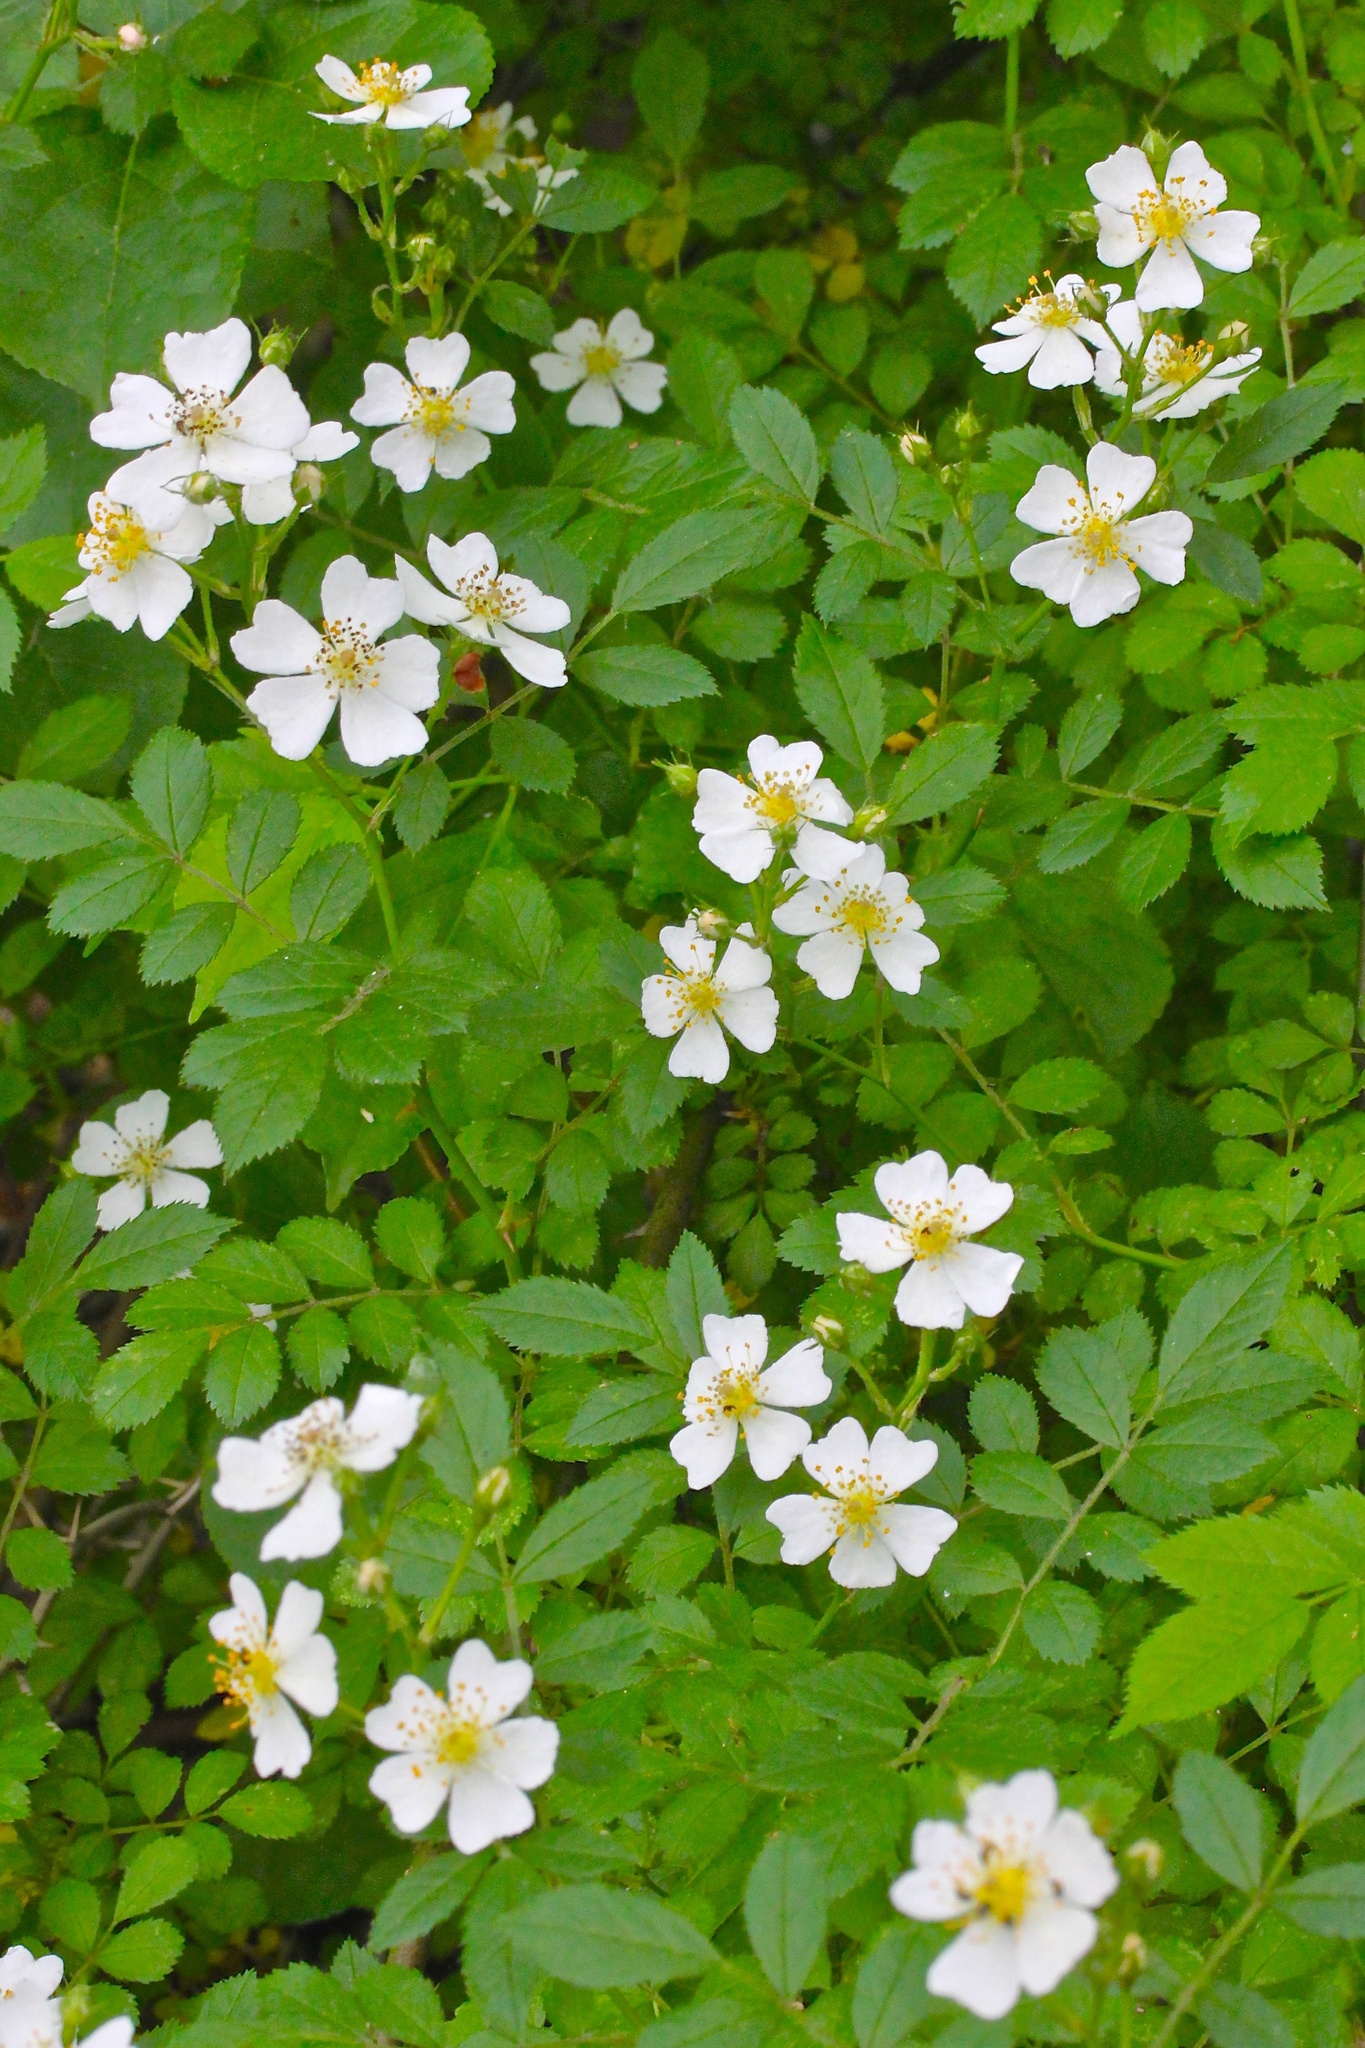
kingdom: Plantae
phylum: Tracheophyta
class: Magnoliopsida
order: Rosales
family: Rosaceae
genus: Rosa
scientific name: Rosa multiflora
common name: Multiflora rose
